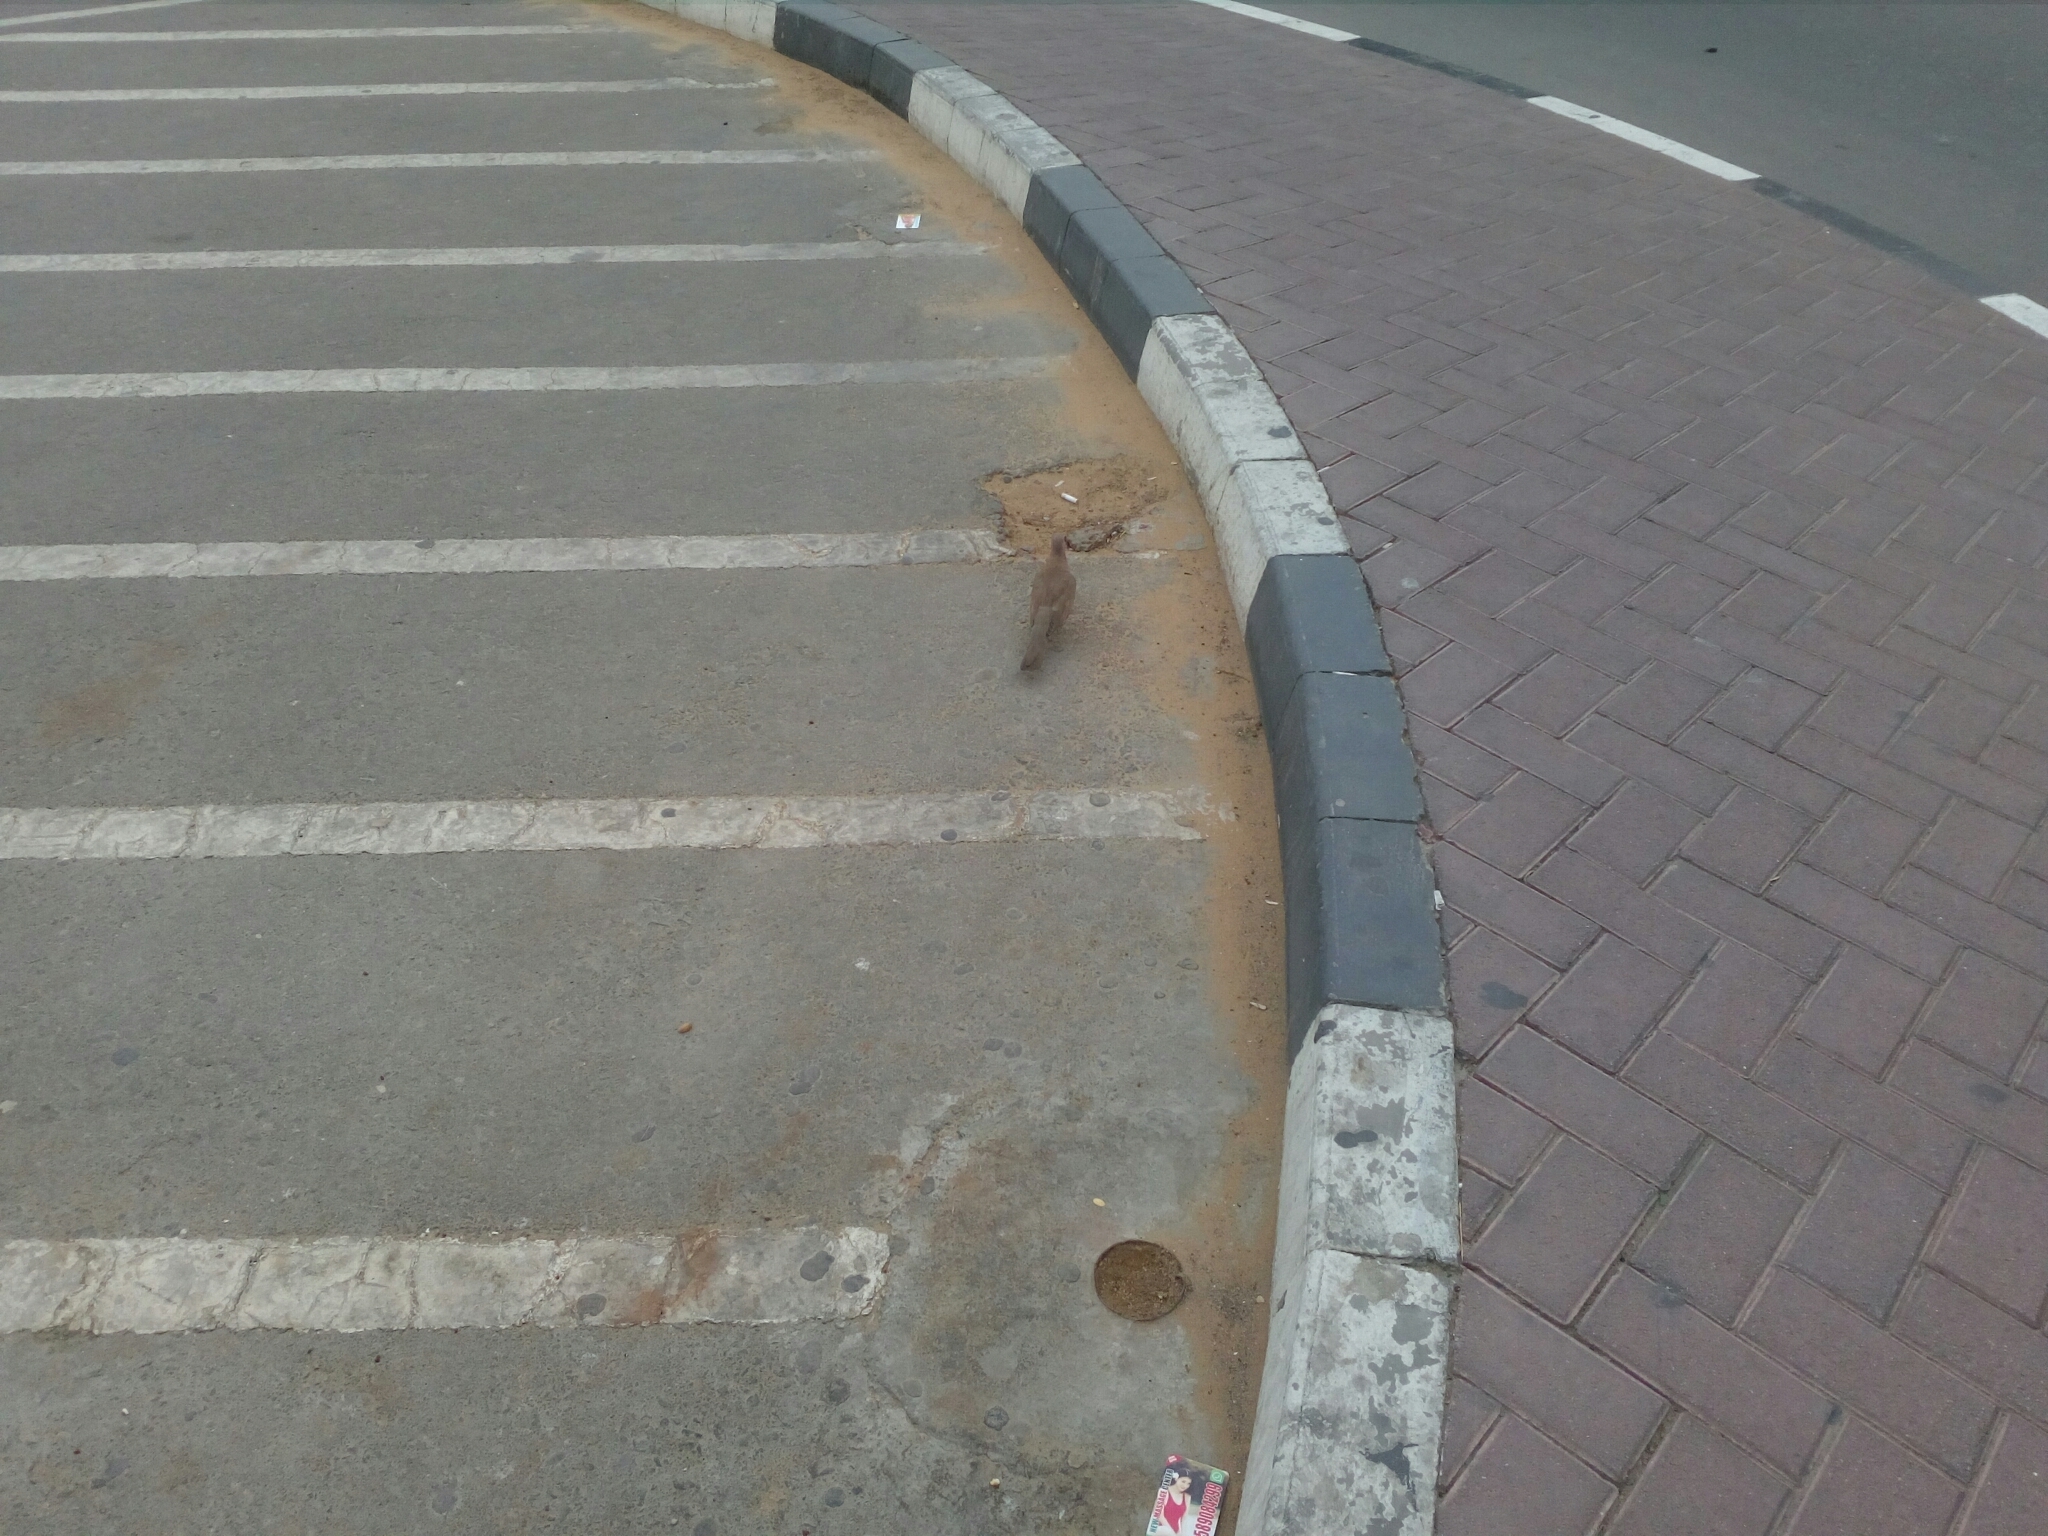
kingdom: Animalia
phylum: Chordata
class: Aves
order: Columbiformes
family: Columbidae
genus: Spilopelia
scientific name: Spilopelia senegalensis
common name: Laughing dove
